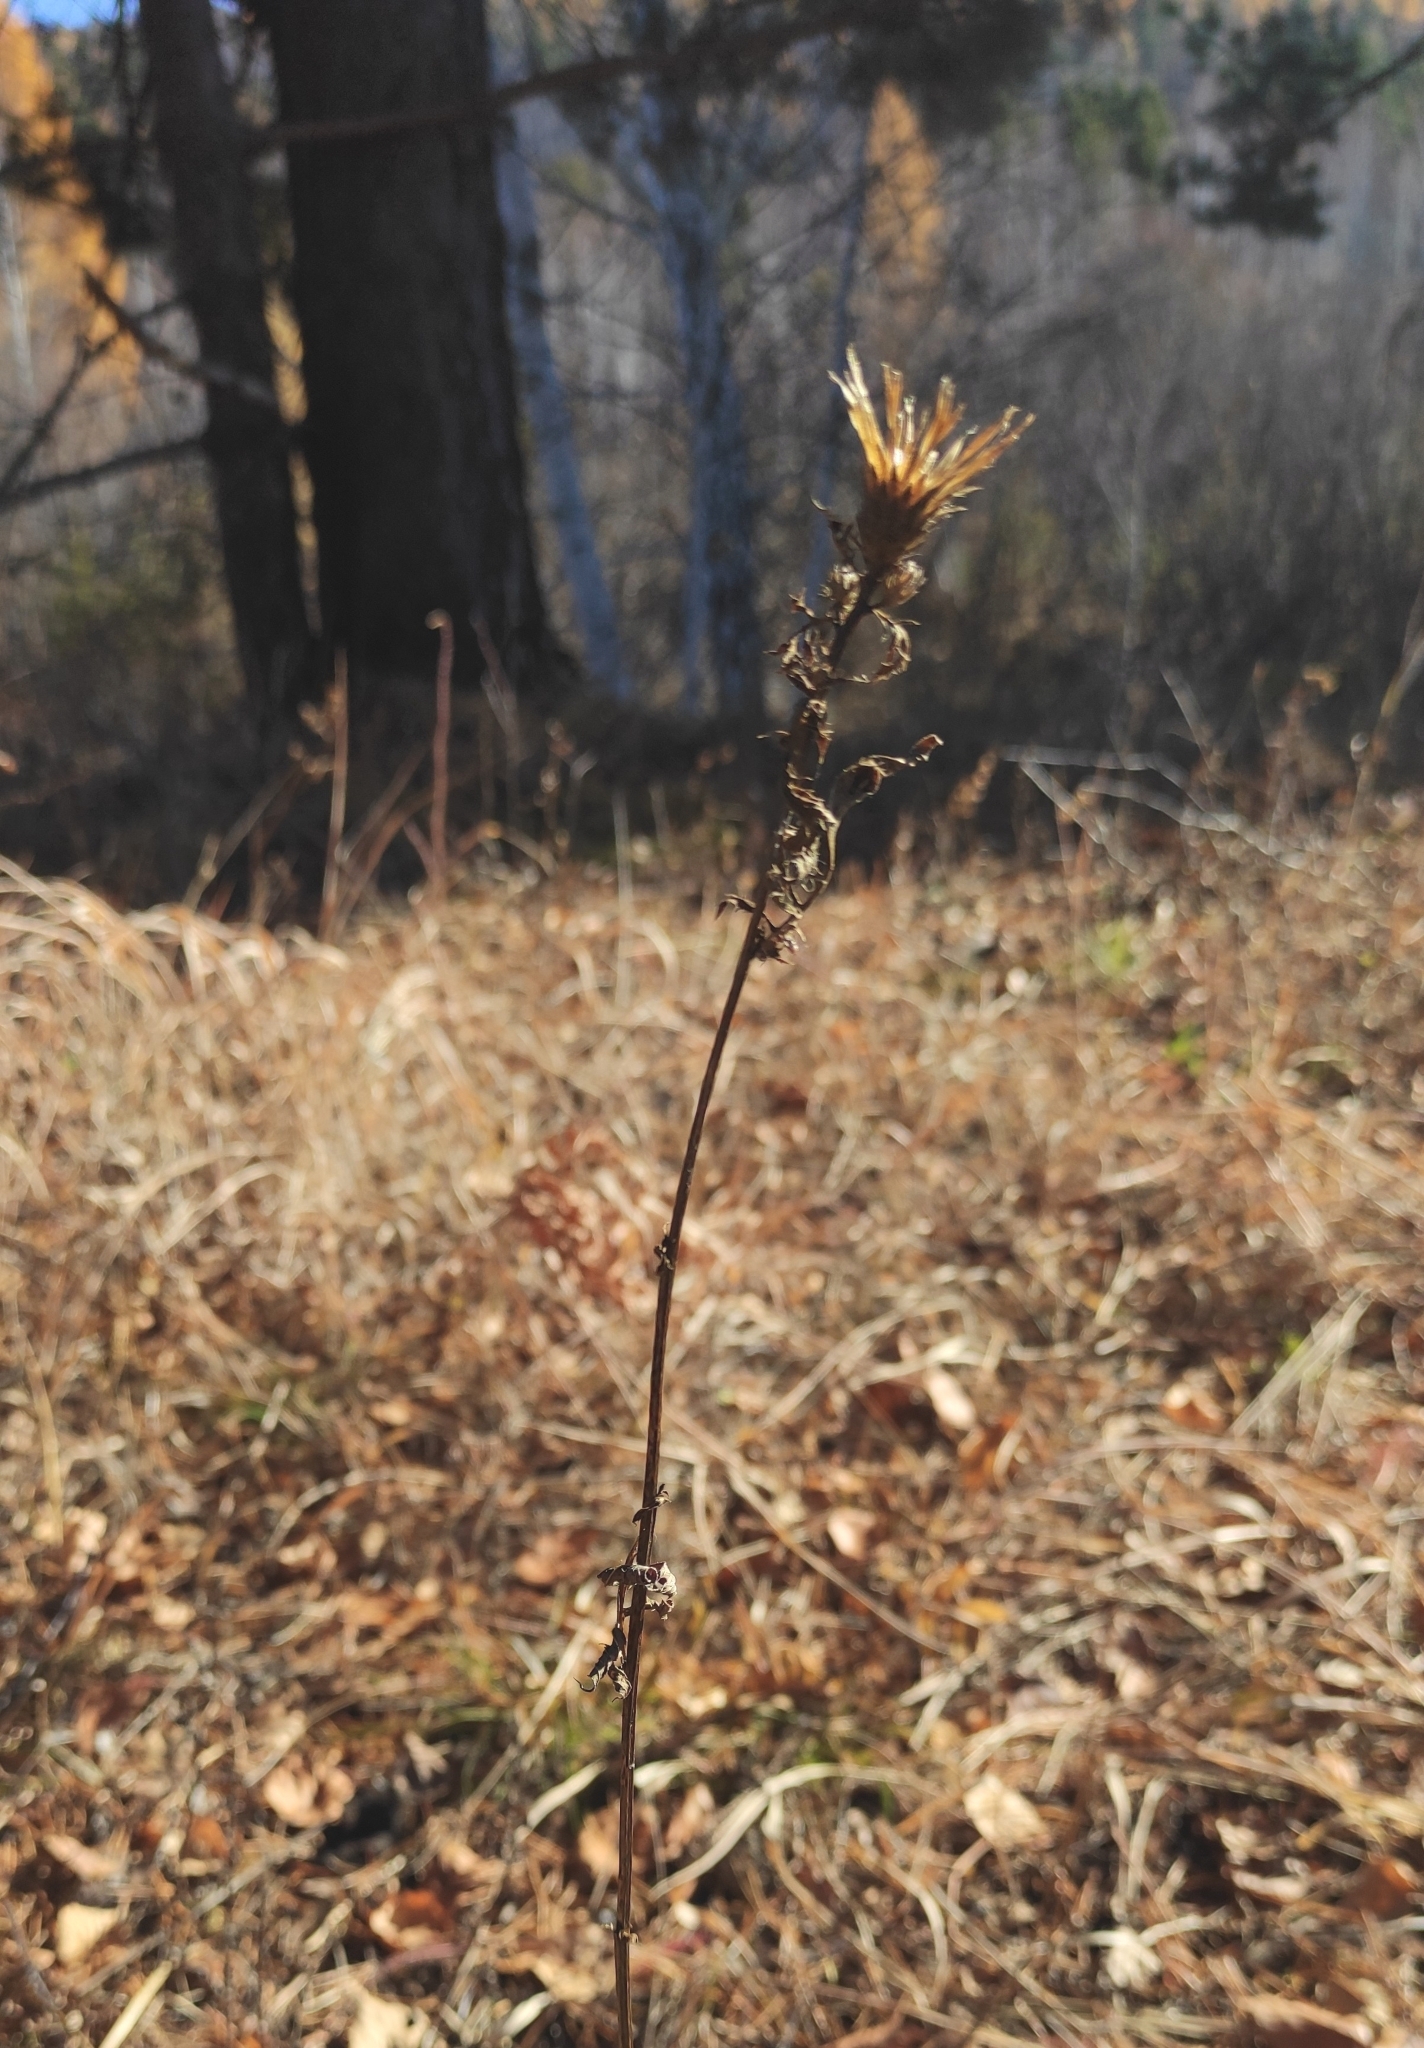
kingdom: Plantae
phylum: Tracheophyta
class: Magnoliopsida
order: Asterales
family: Asteraceae
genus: Serratula
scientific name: Serratula coronata
